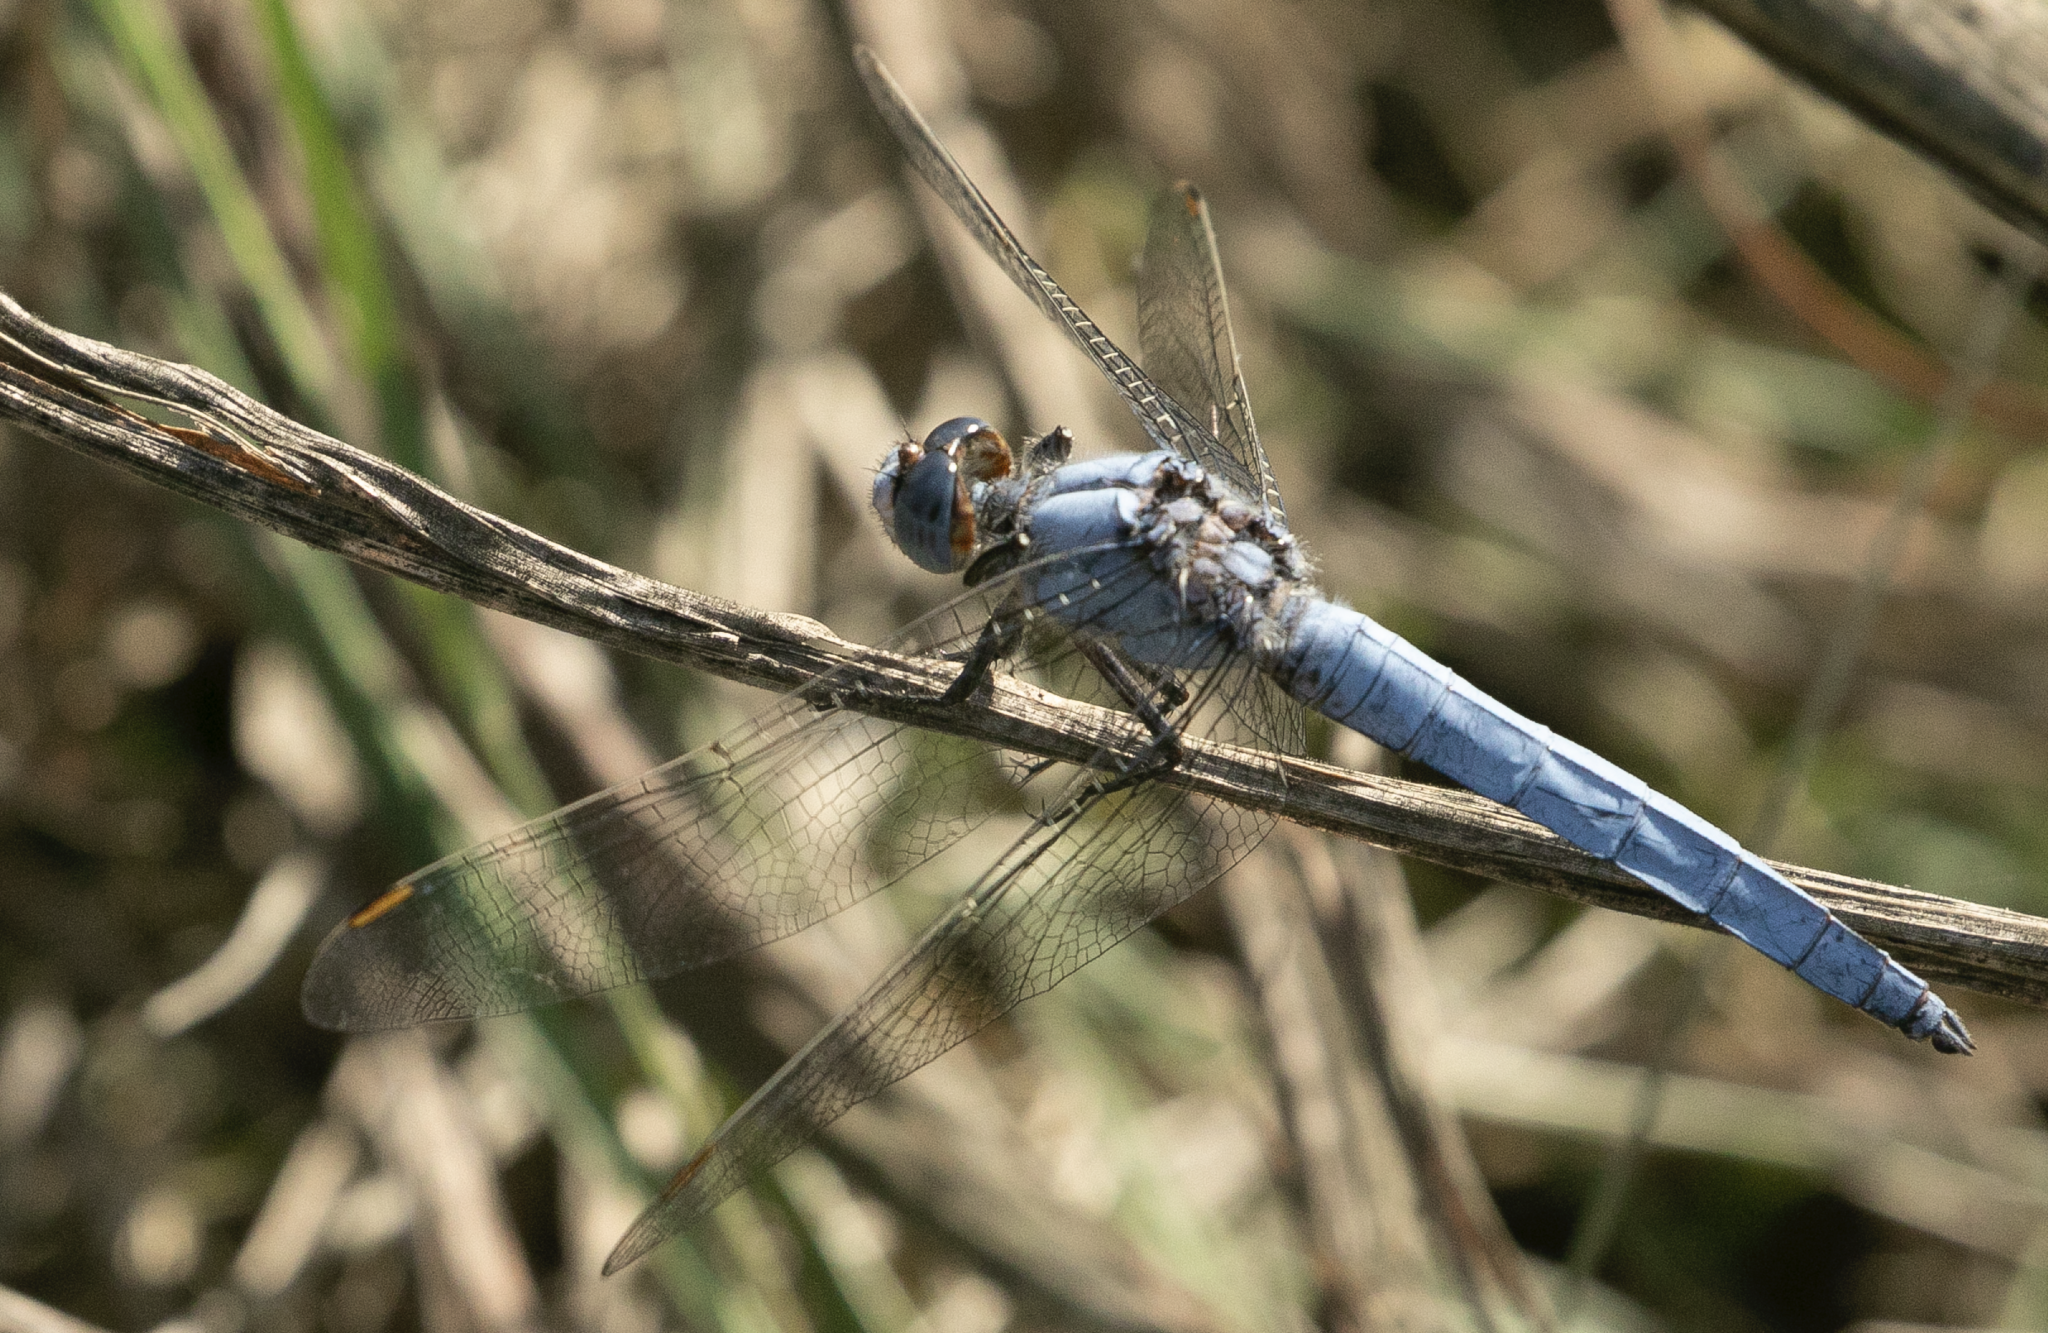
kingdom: Animalia
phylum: Arthropoda
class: Insecta
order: Odonata
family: Libellulidae
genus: Orthetrum
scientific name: Orthetrum brunneum
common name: Southern skimmer
